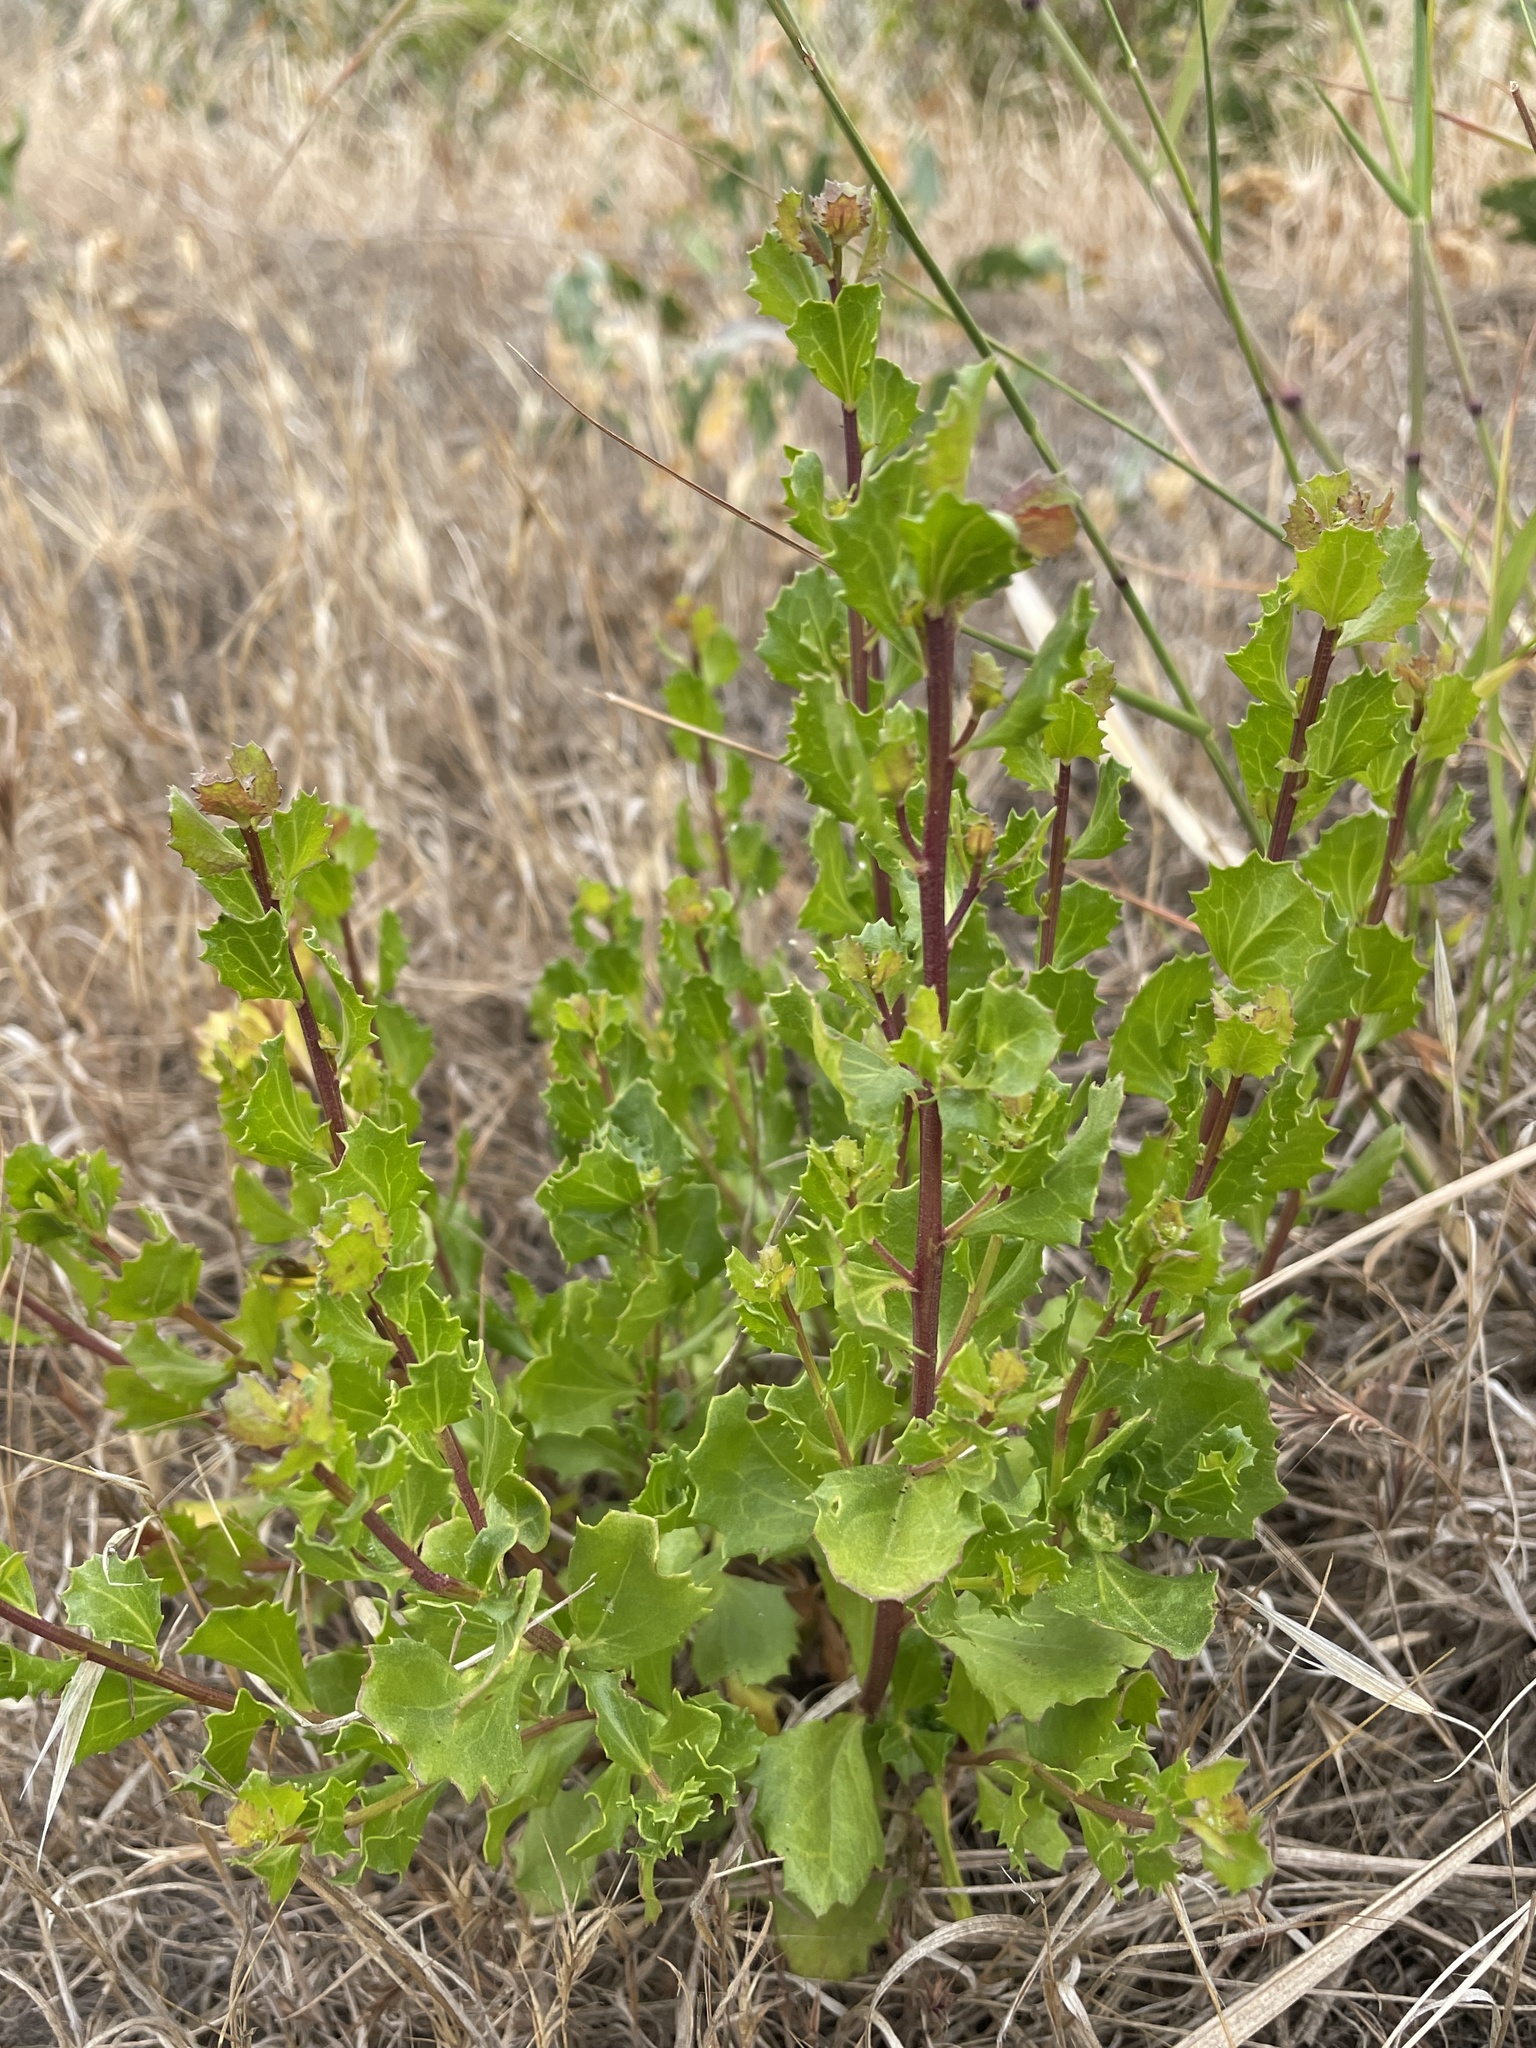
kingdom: Plantae
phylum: Tracheophyta
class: Magnoliopsida
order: Asterales
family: Asteraceae
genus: Baccharis
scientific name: Baccharis pilularis
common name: Coyotebrush
